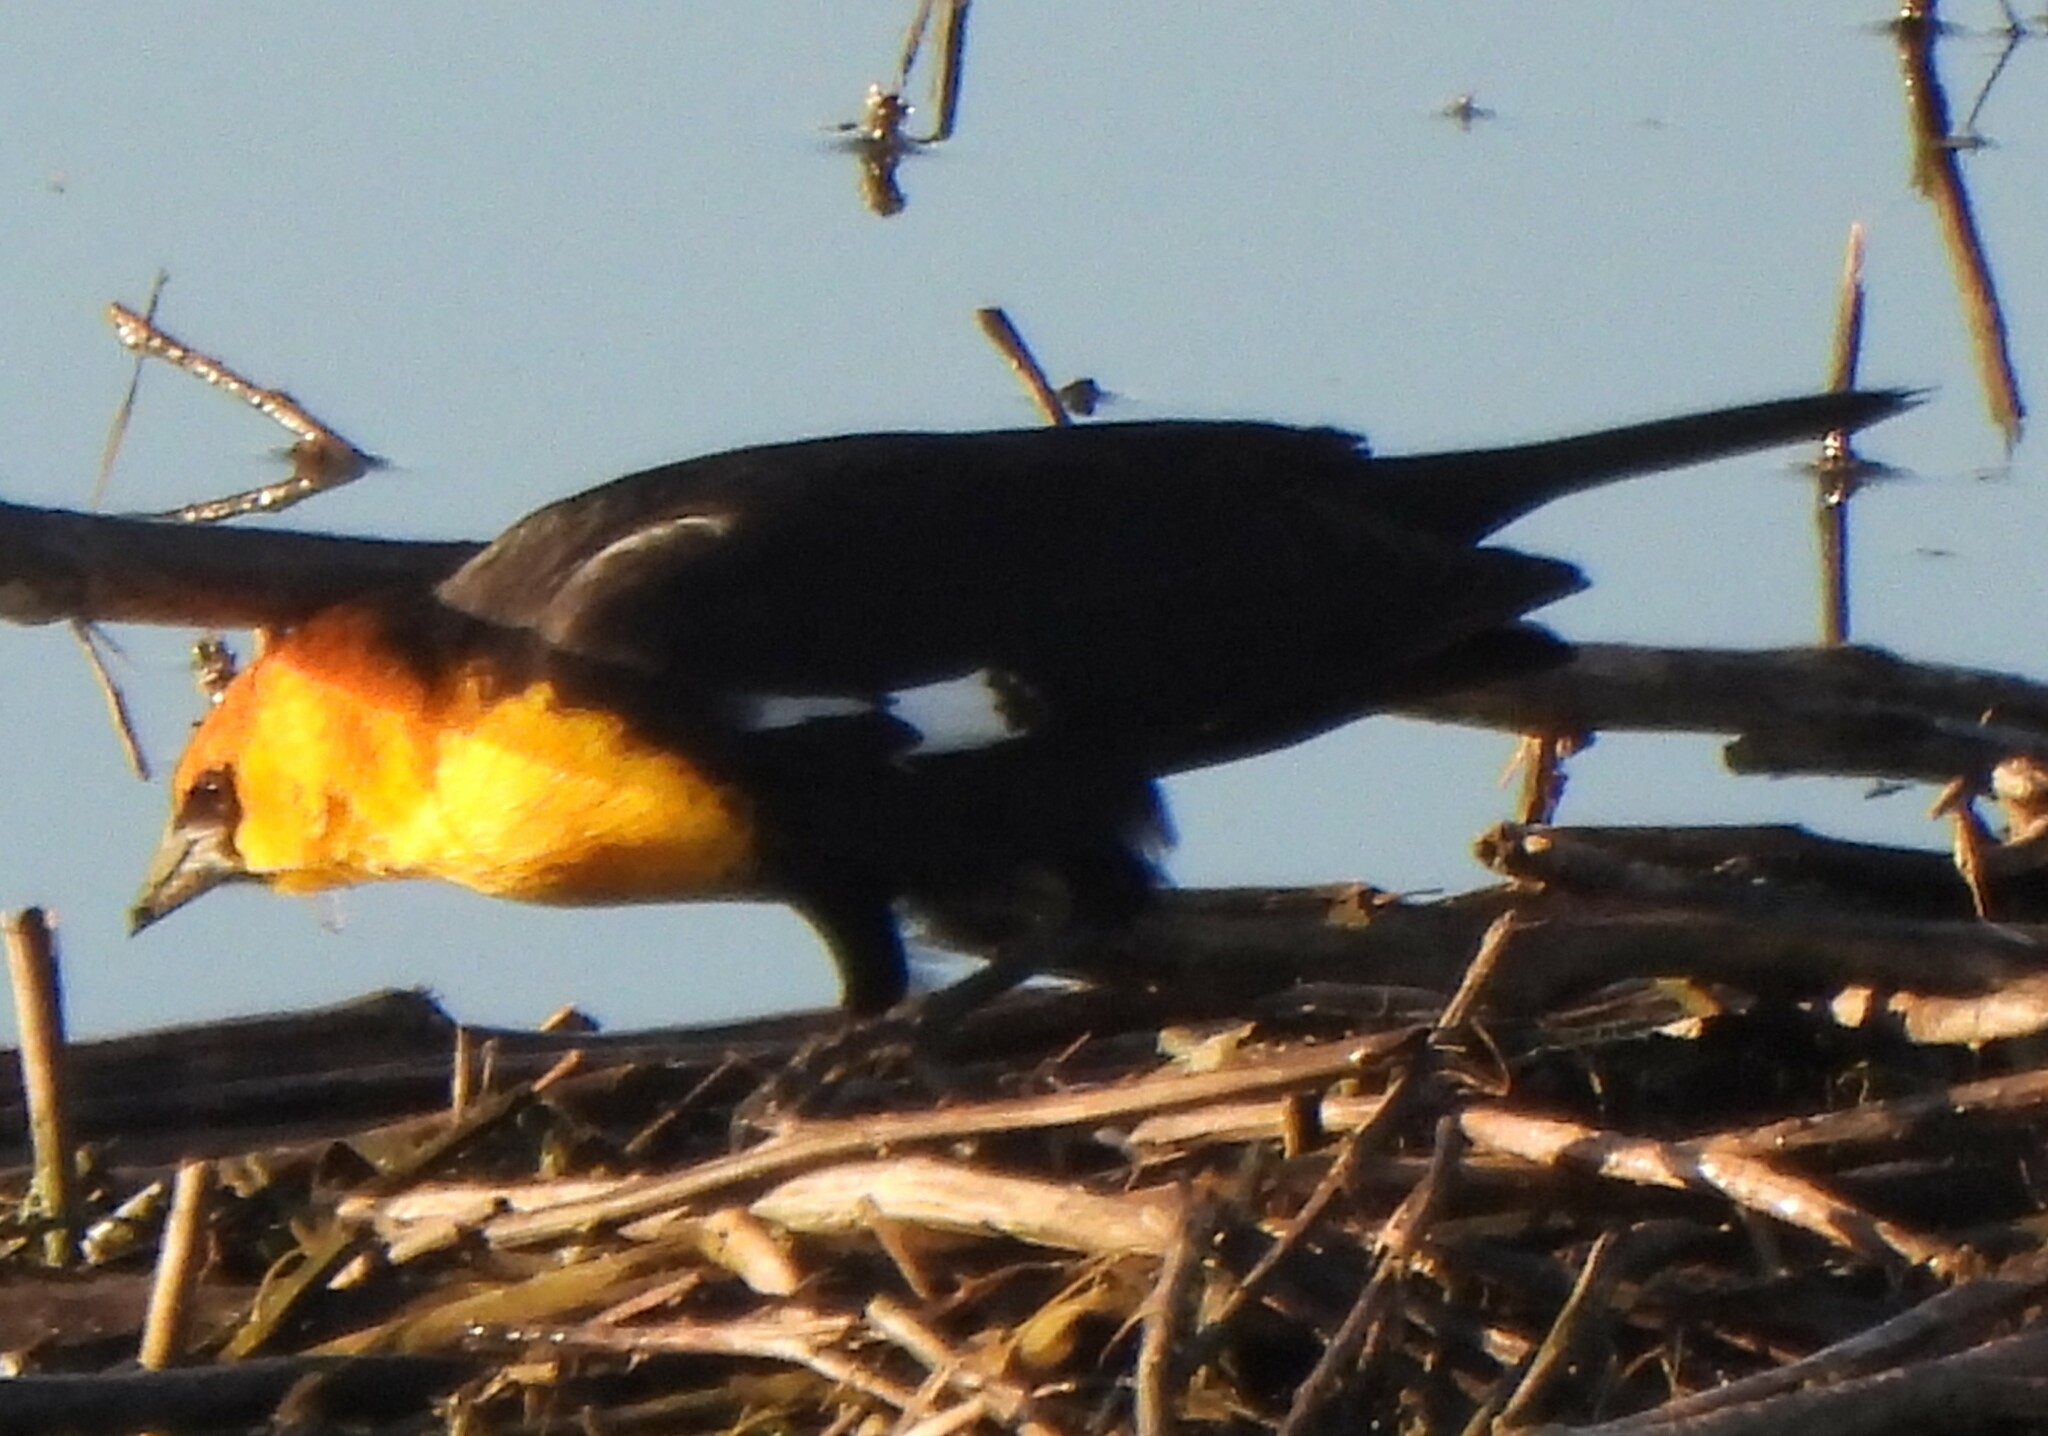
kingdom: Animalia
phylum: Chordata
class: Aves
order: Passeriformes
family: Icteridae
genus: Xanthocephalus
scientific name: Xanthocephalus xanthocephalus
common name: Yellow-headed blackbird
